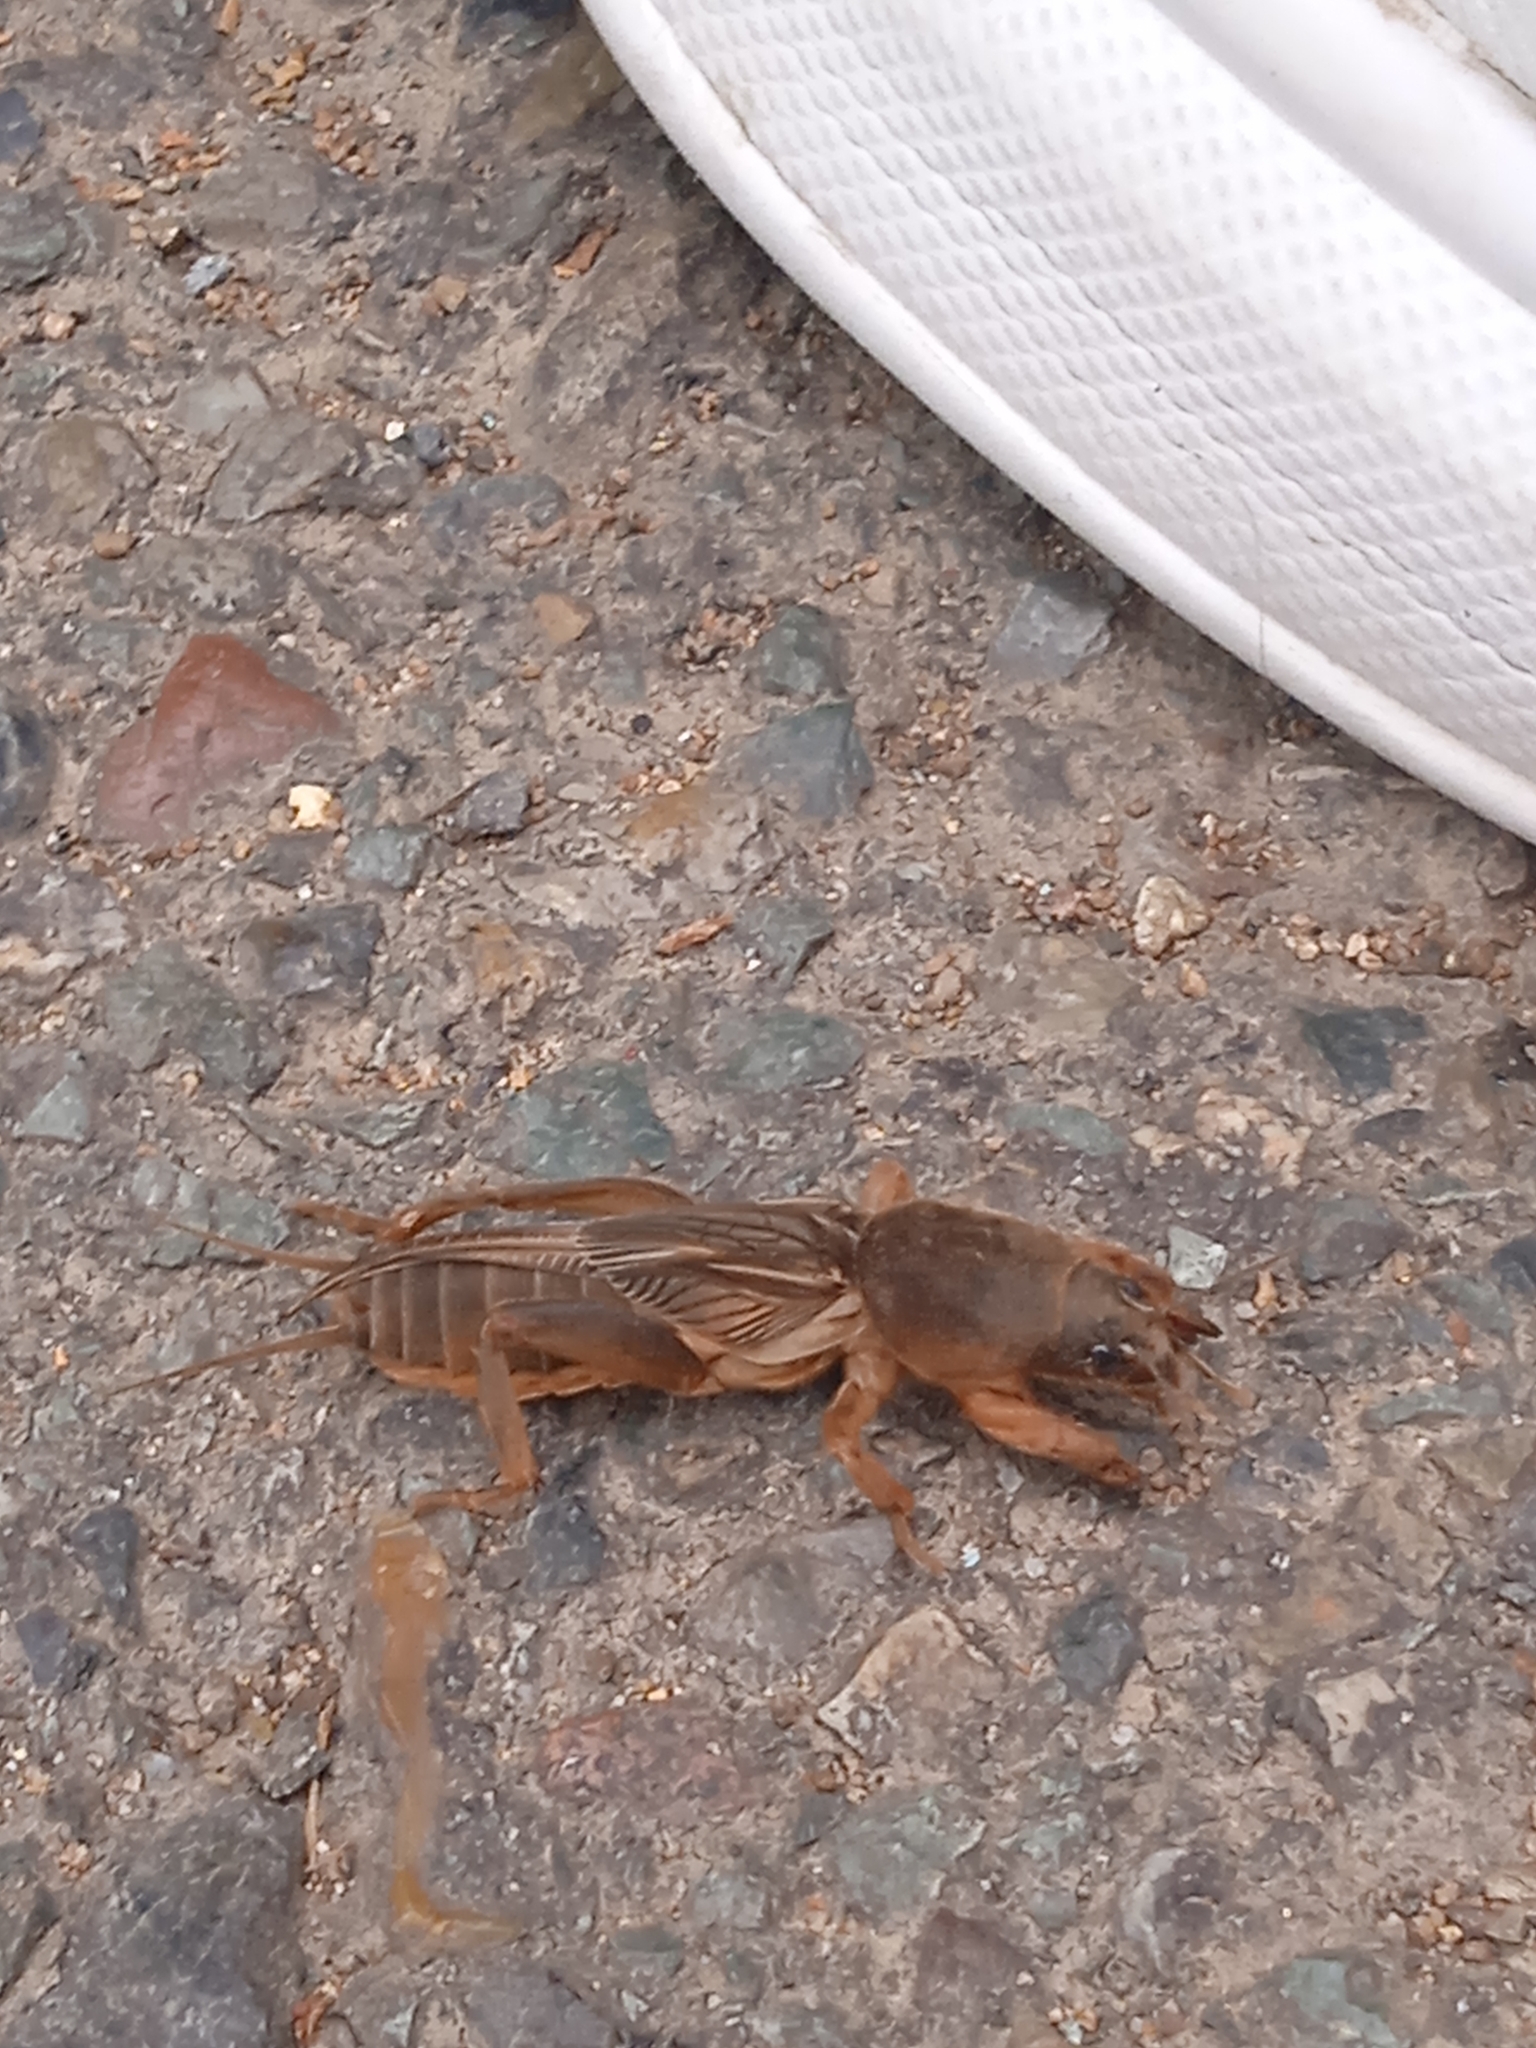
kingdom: Animalia
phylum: Arthropoda
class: Insecta
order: Orthoptera
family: Gryllotalpidae
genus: Gryllotalpa
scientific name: Gryllotalpa orientalis
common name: Grasshopper
